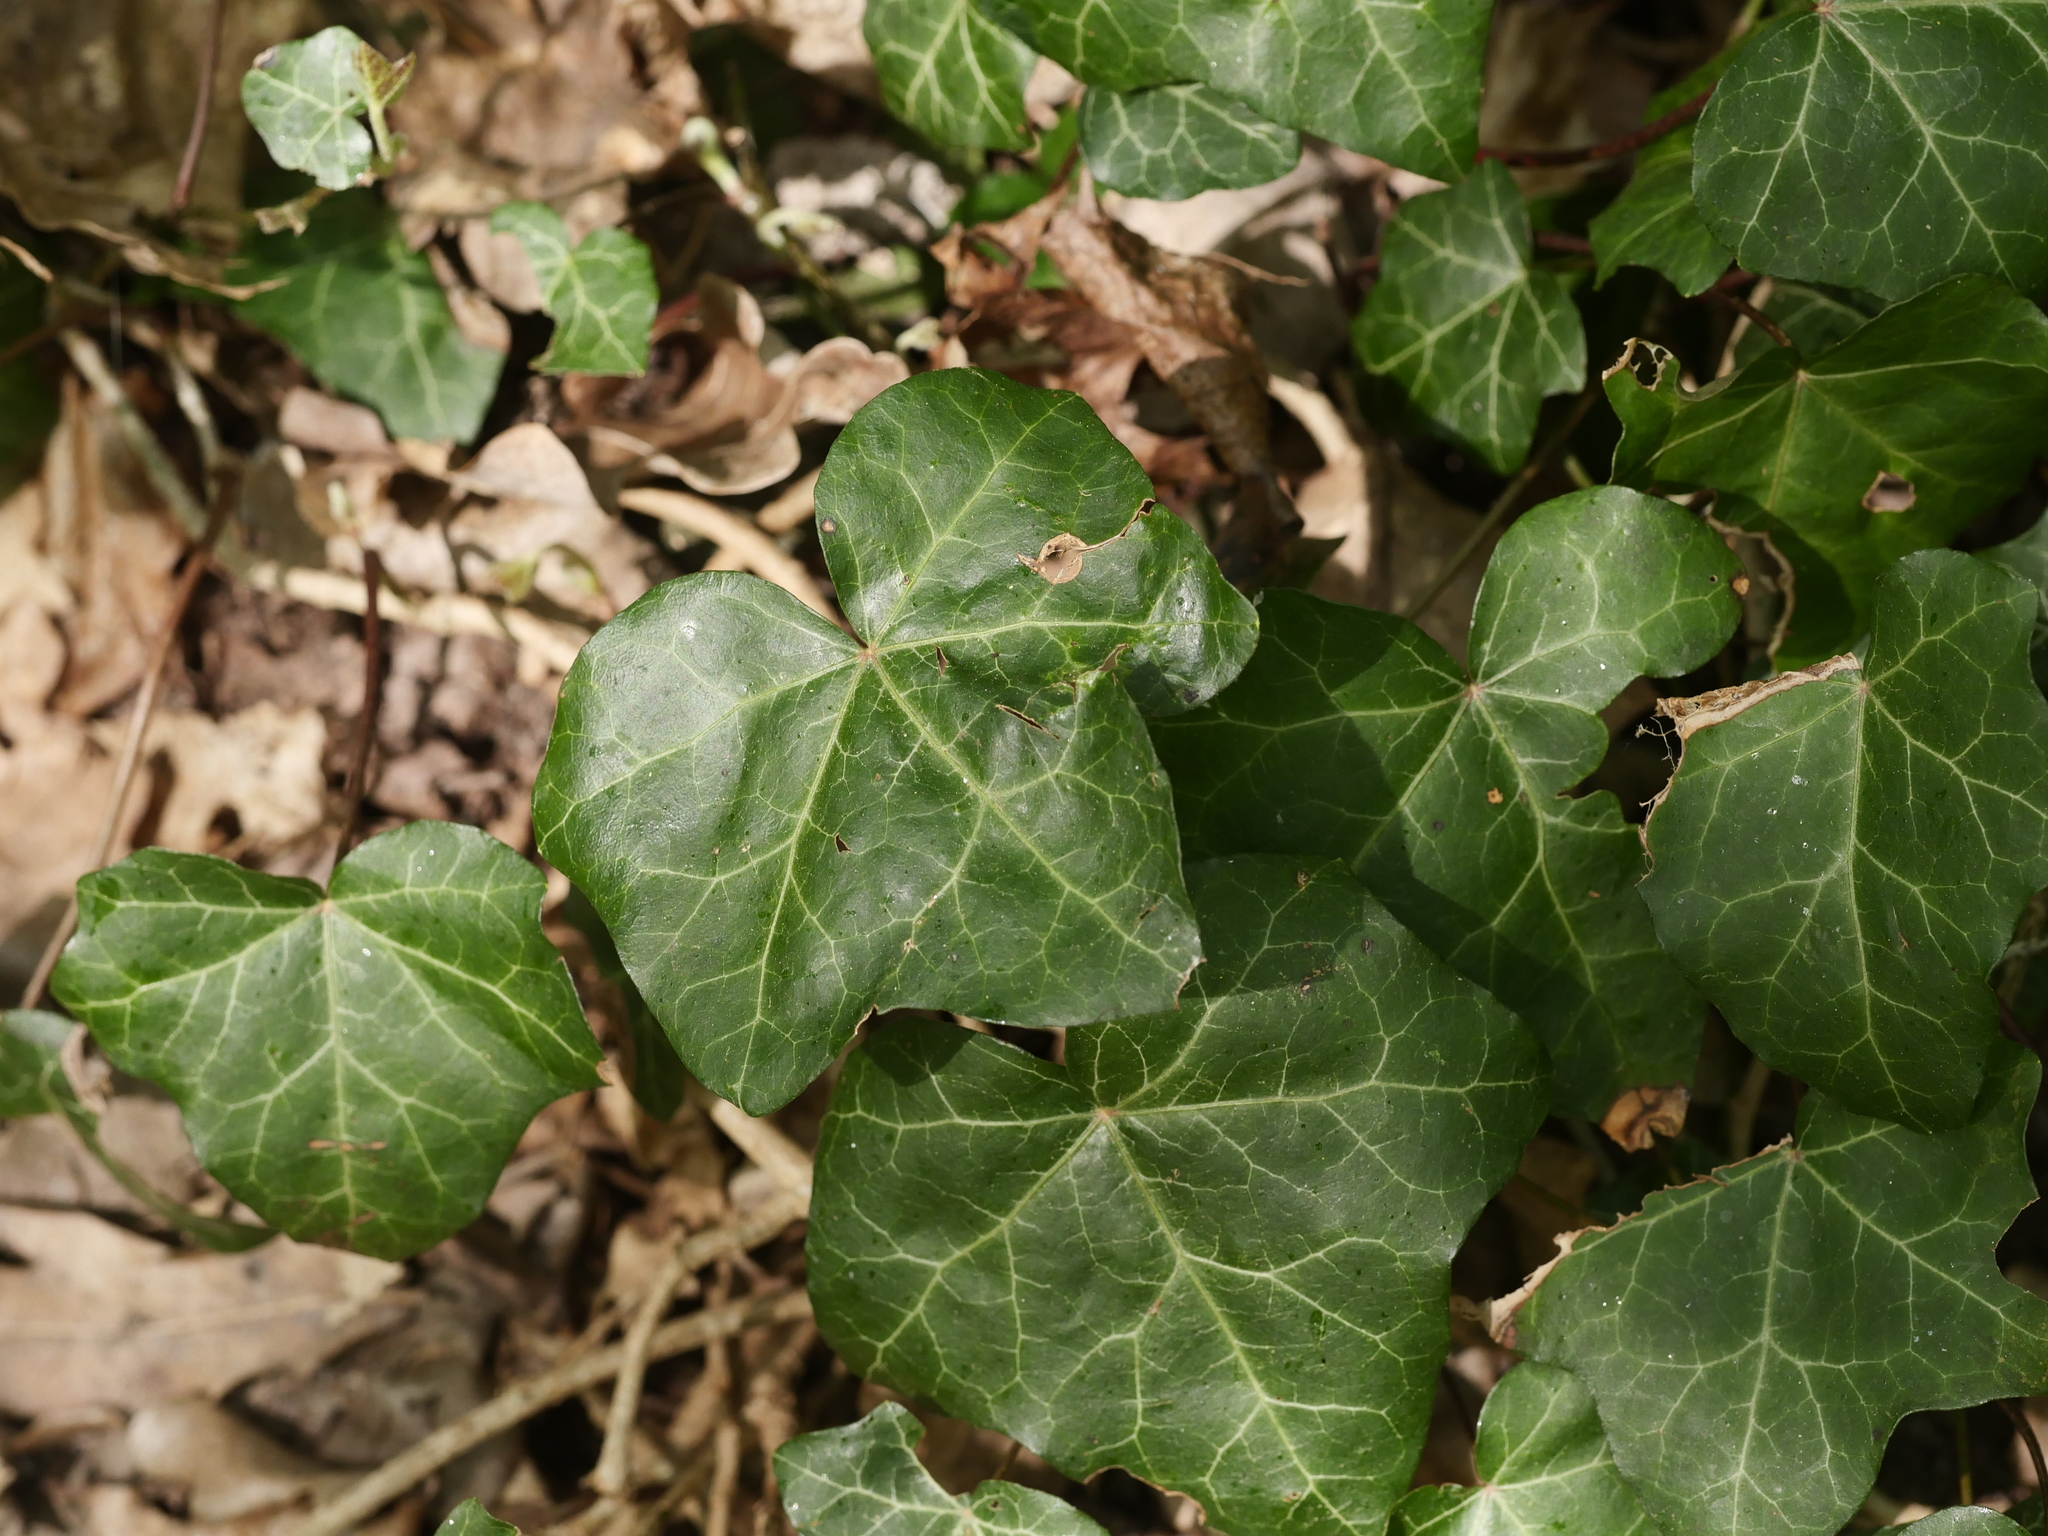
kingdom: Plantae
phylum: Tracheophyta
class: Magnoliopsida
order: Apiales
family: Araliaceae
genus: Hedera
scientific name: Hedera helix
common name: Ivy
